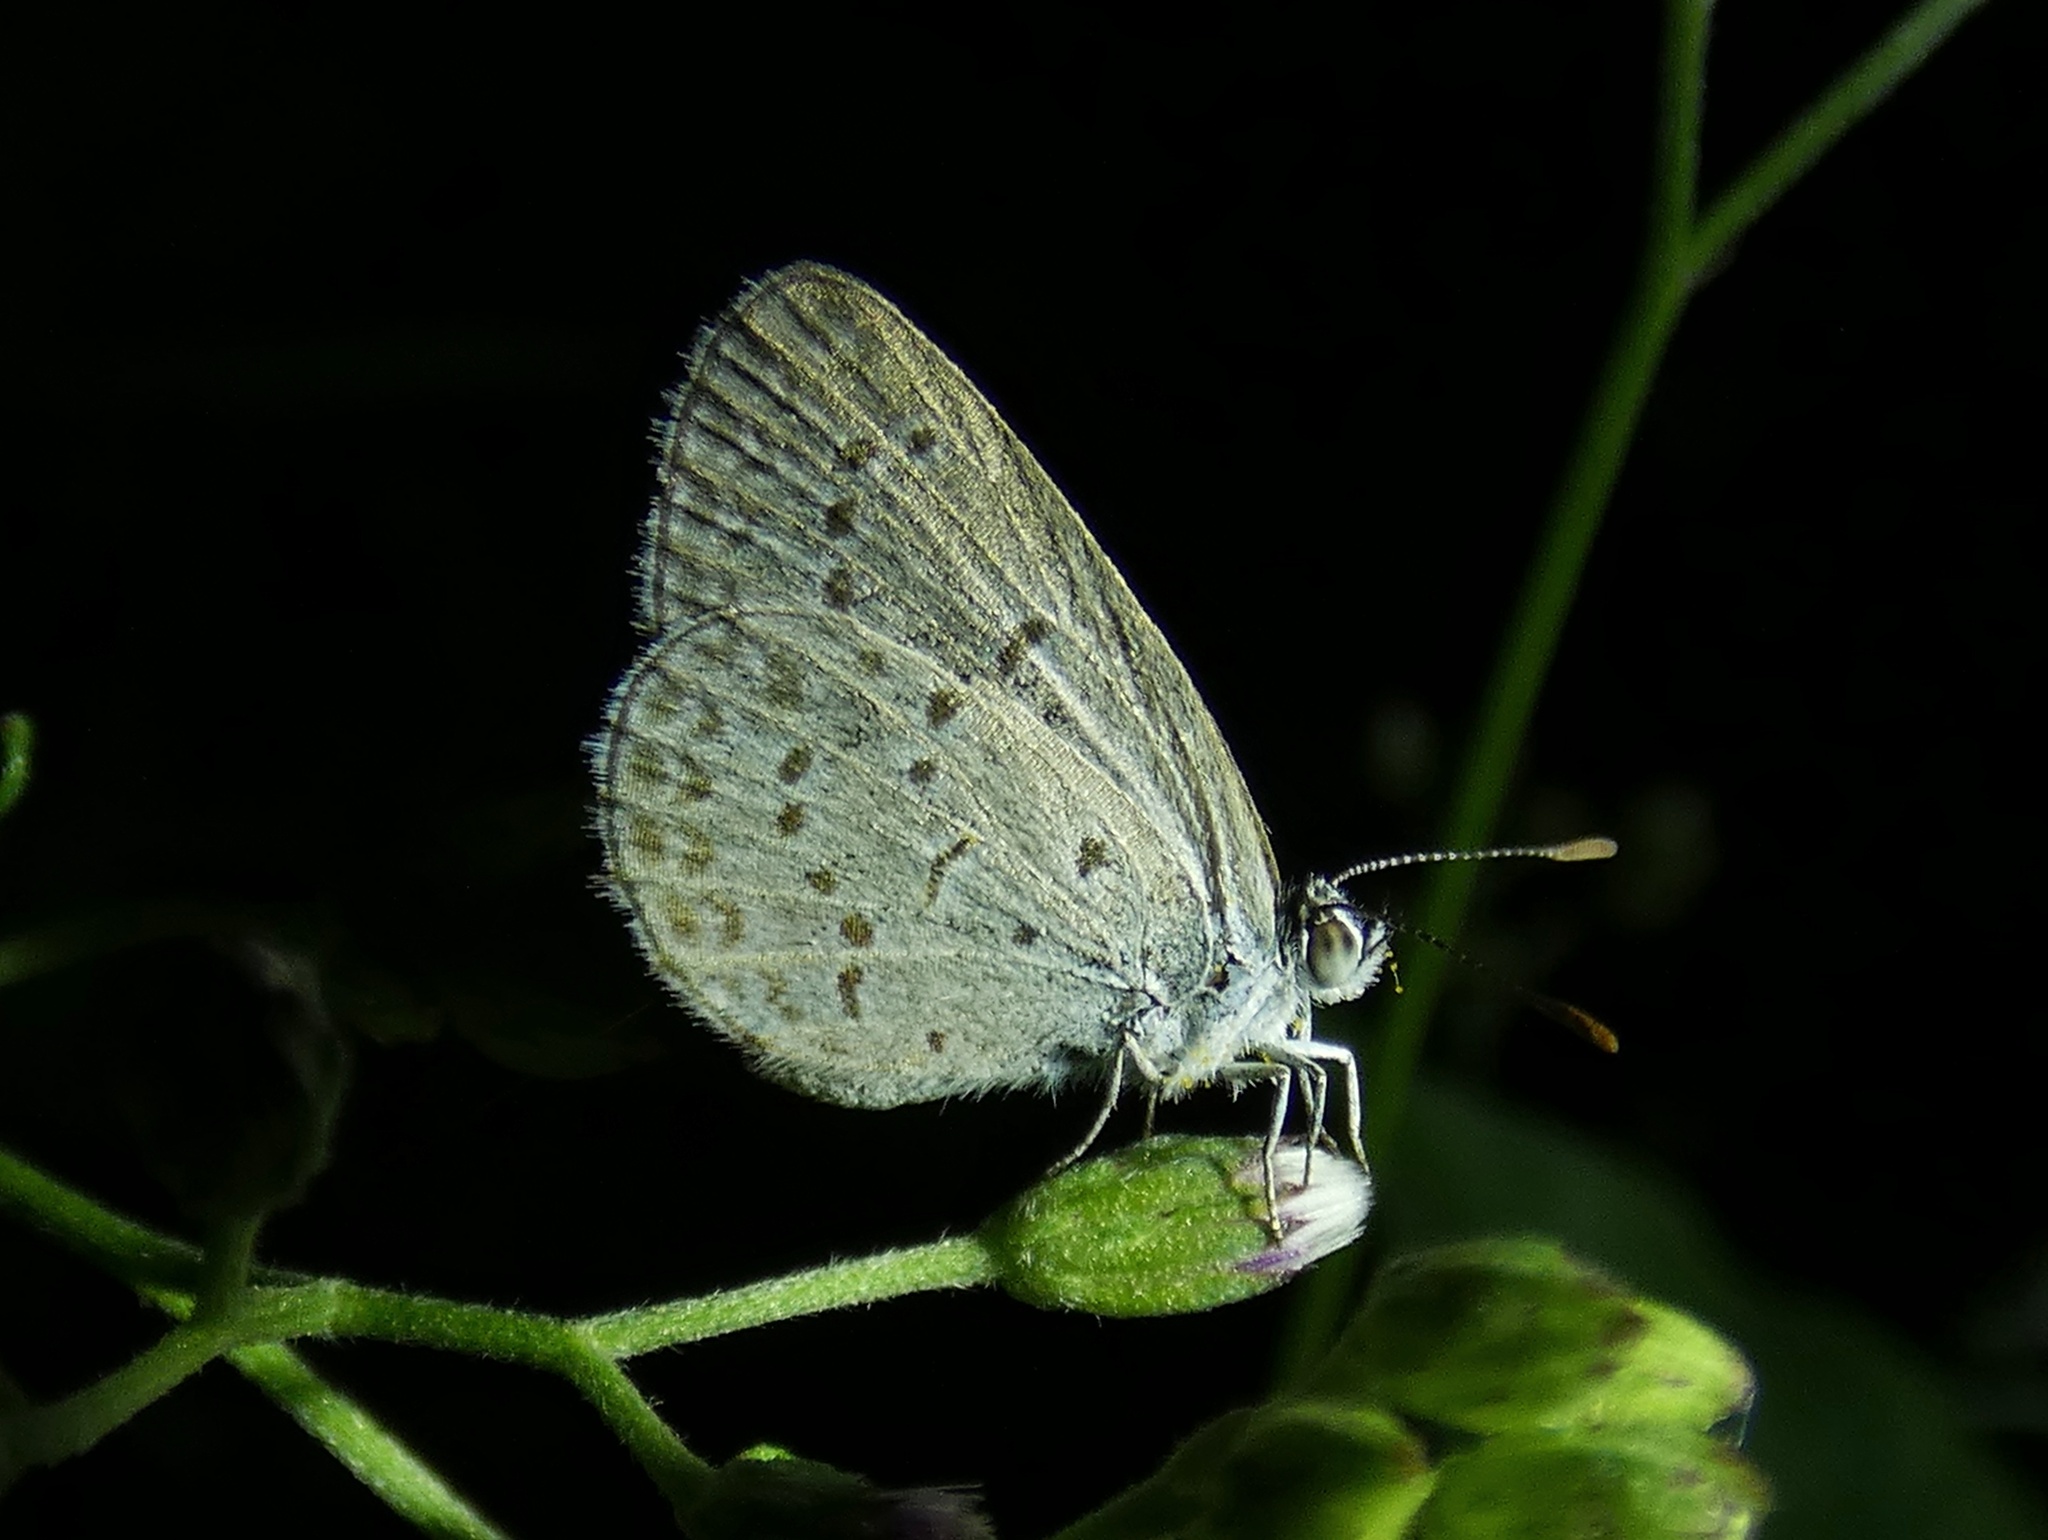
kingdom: Animalia
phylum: Arthropoda
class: Insecta
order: Lepidoptera
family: Lycaenidae
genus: Zizina
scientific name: Zizina otis
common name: Lesser grass blue
